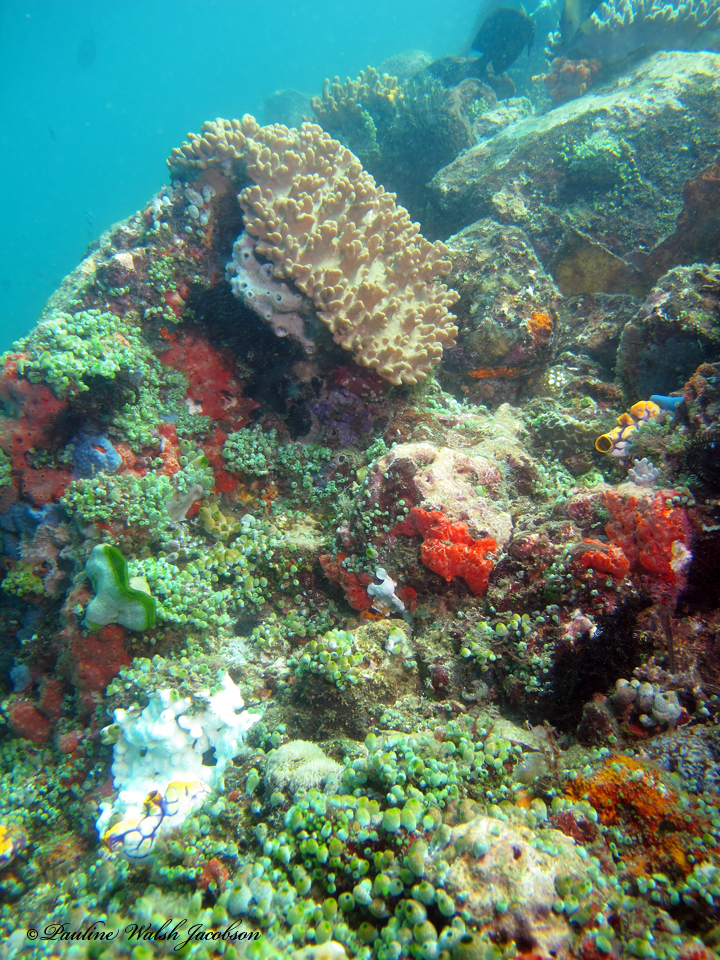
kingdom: Animalia
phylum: Chordata
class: Ascidiacea
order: Aplousobranchia
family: Didemnidae
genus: Didemnum
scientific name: Didemnum molle
